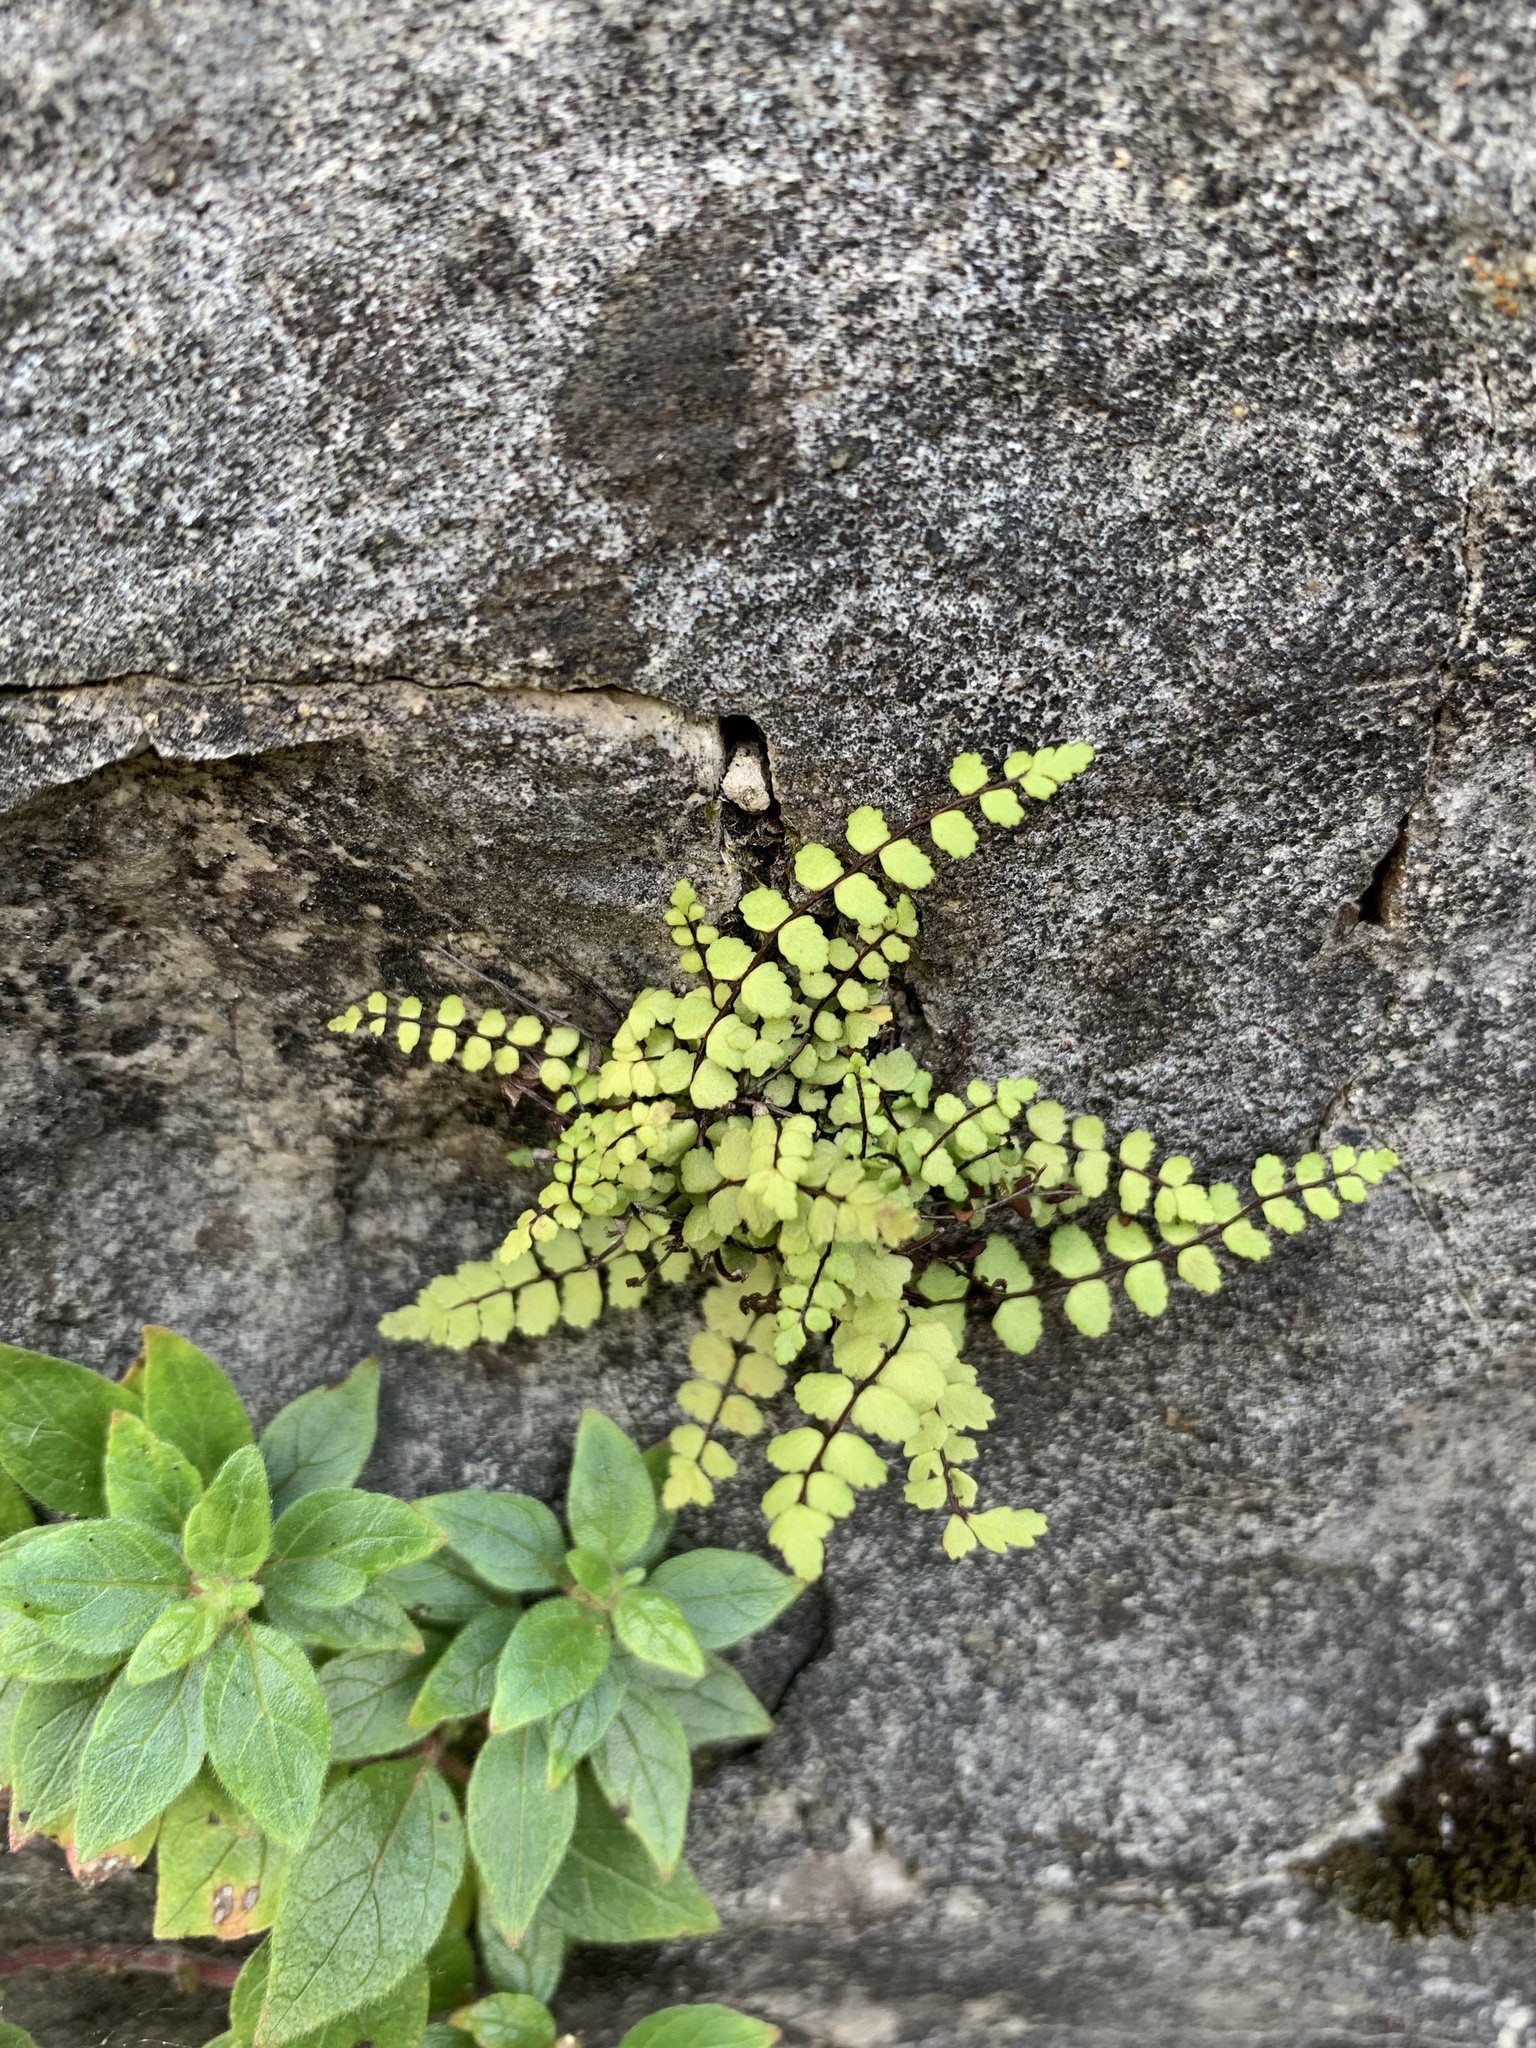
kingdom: Plantae
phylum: Tracheophyta
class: Polypodiopsida
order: Polypodiales
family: Aspleniaceae
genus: Asplenium
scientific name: Asplenium trichomanes
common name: Maidenhair spleenwort
